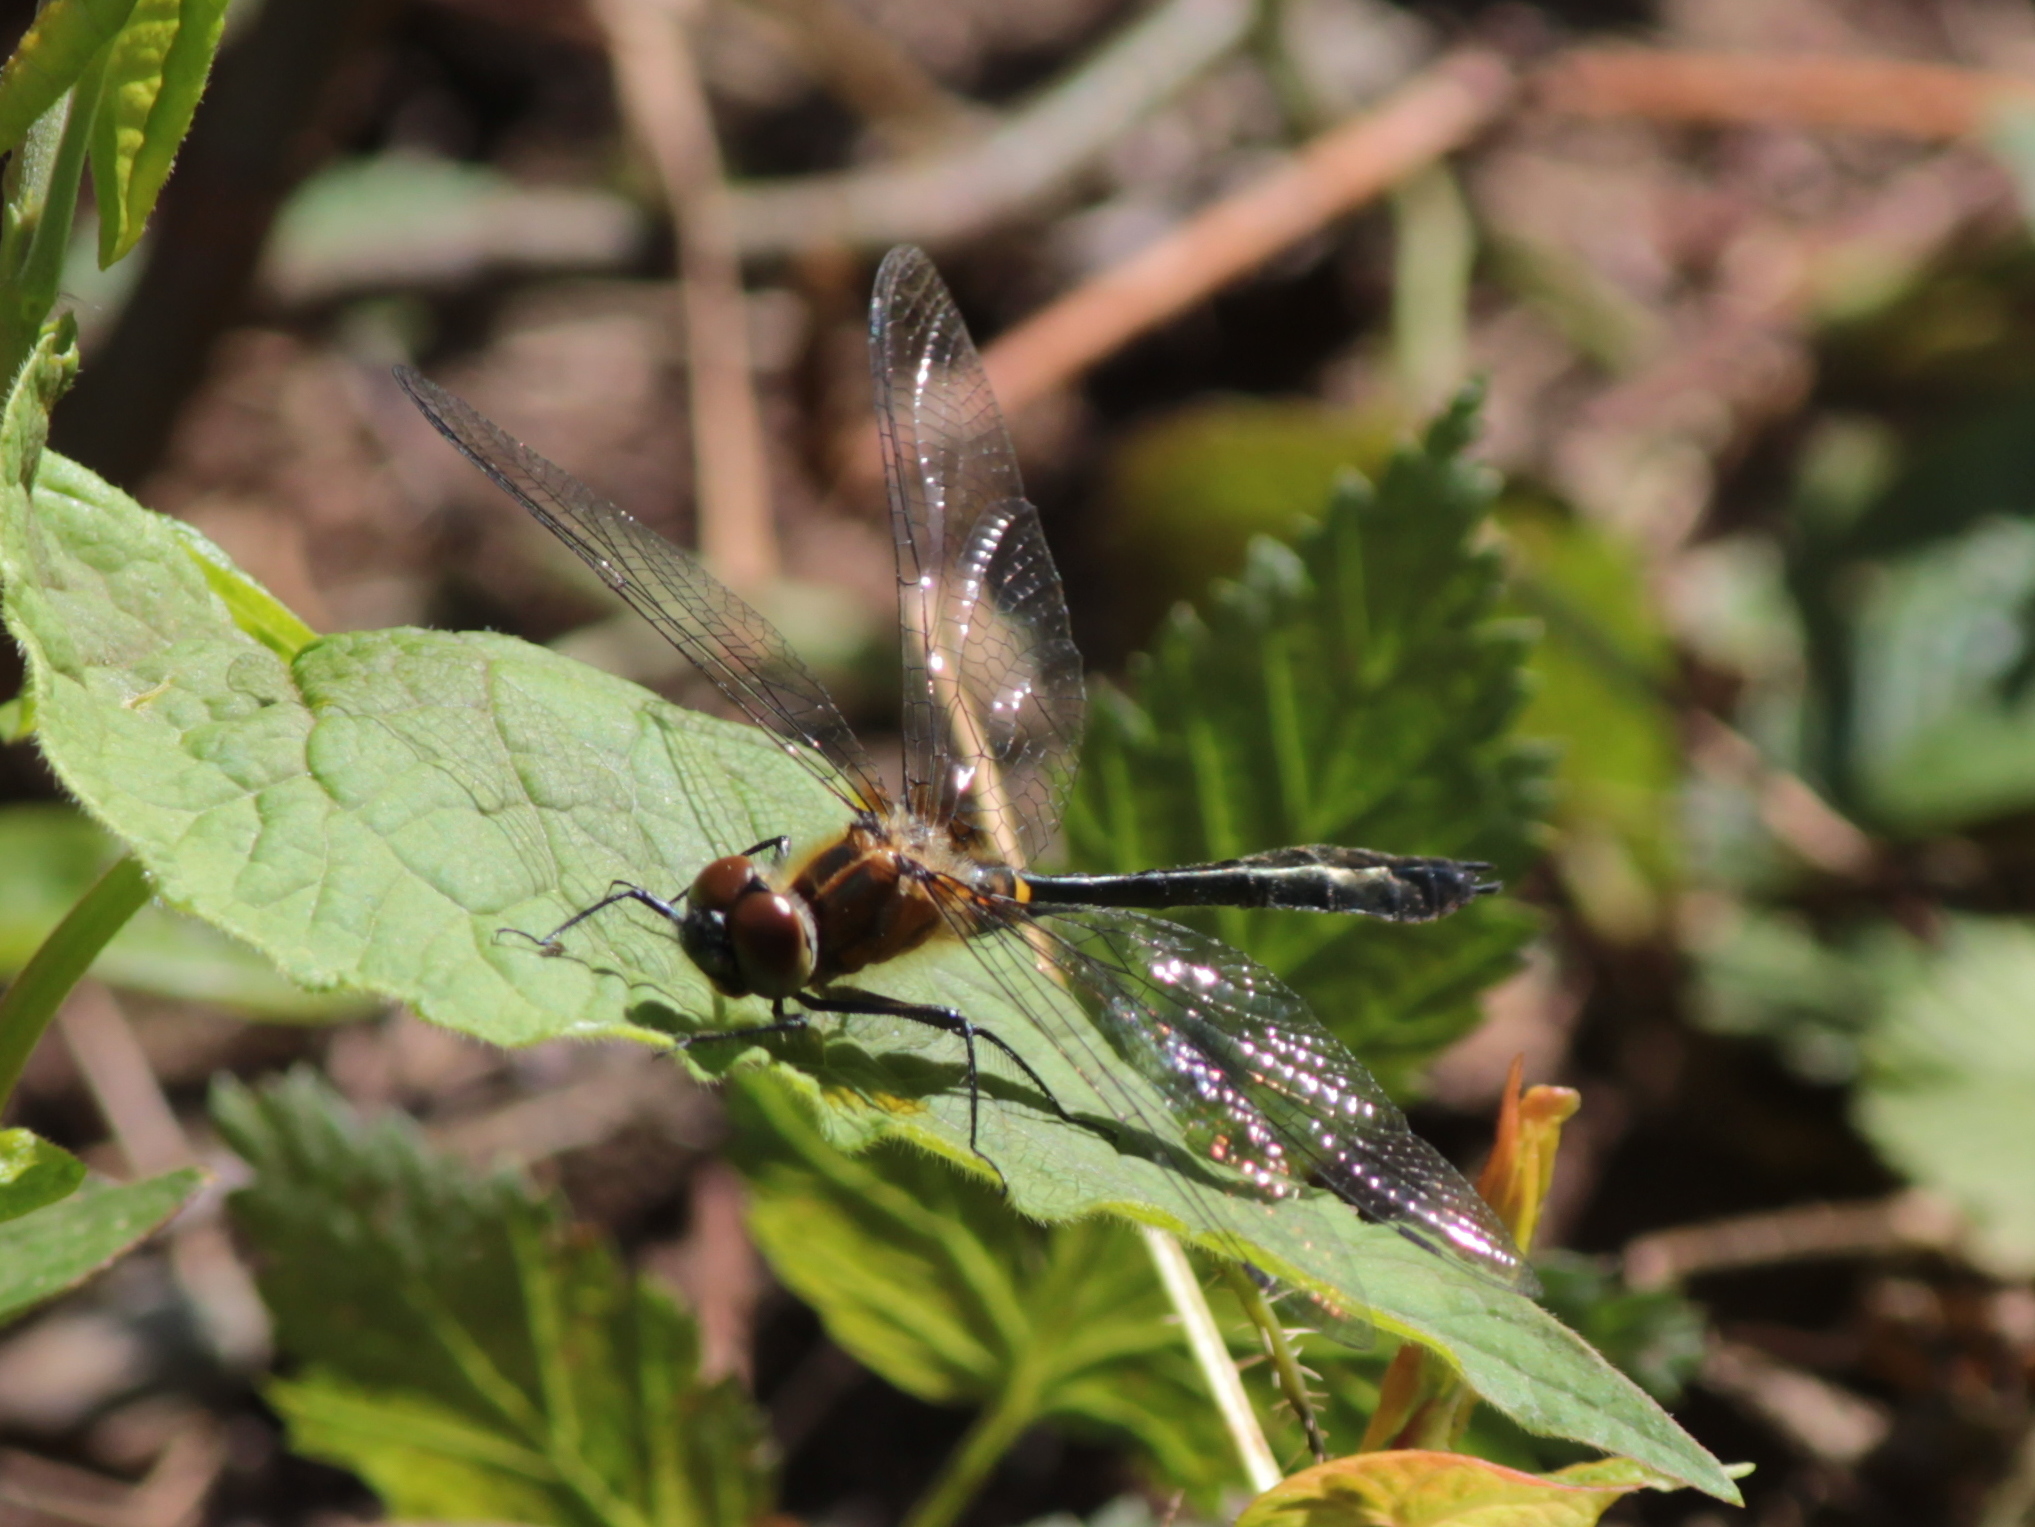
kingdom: Animalia
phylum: Arthropoda
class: Insecta
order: Odonata
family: Corduliidae
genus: Dorocordulia
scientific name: Dorocordulia libera
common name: Racket-tailed emerald
